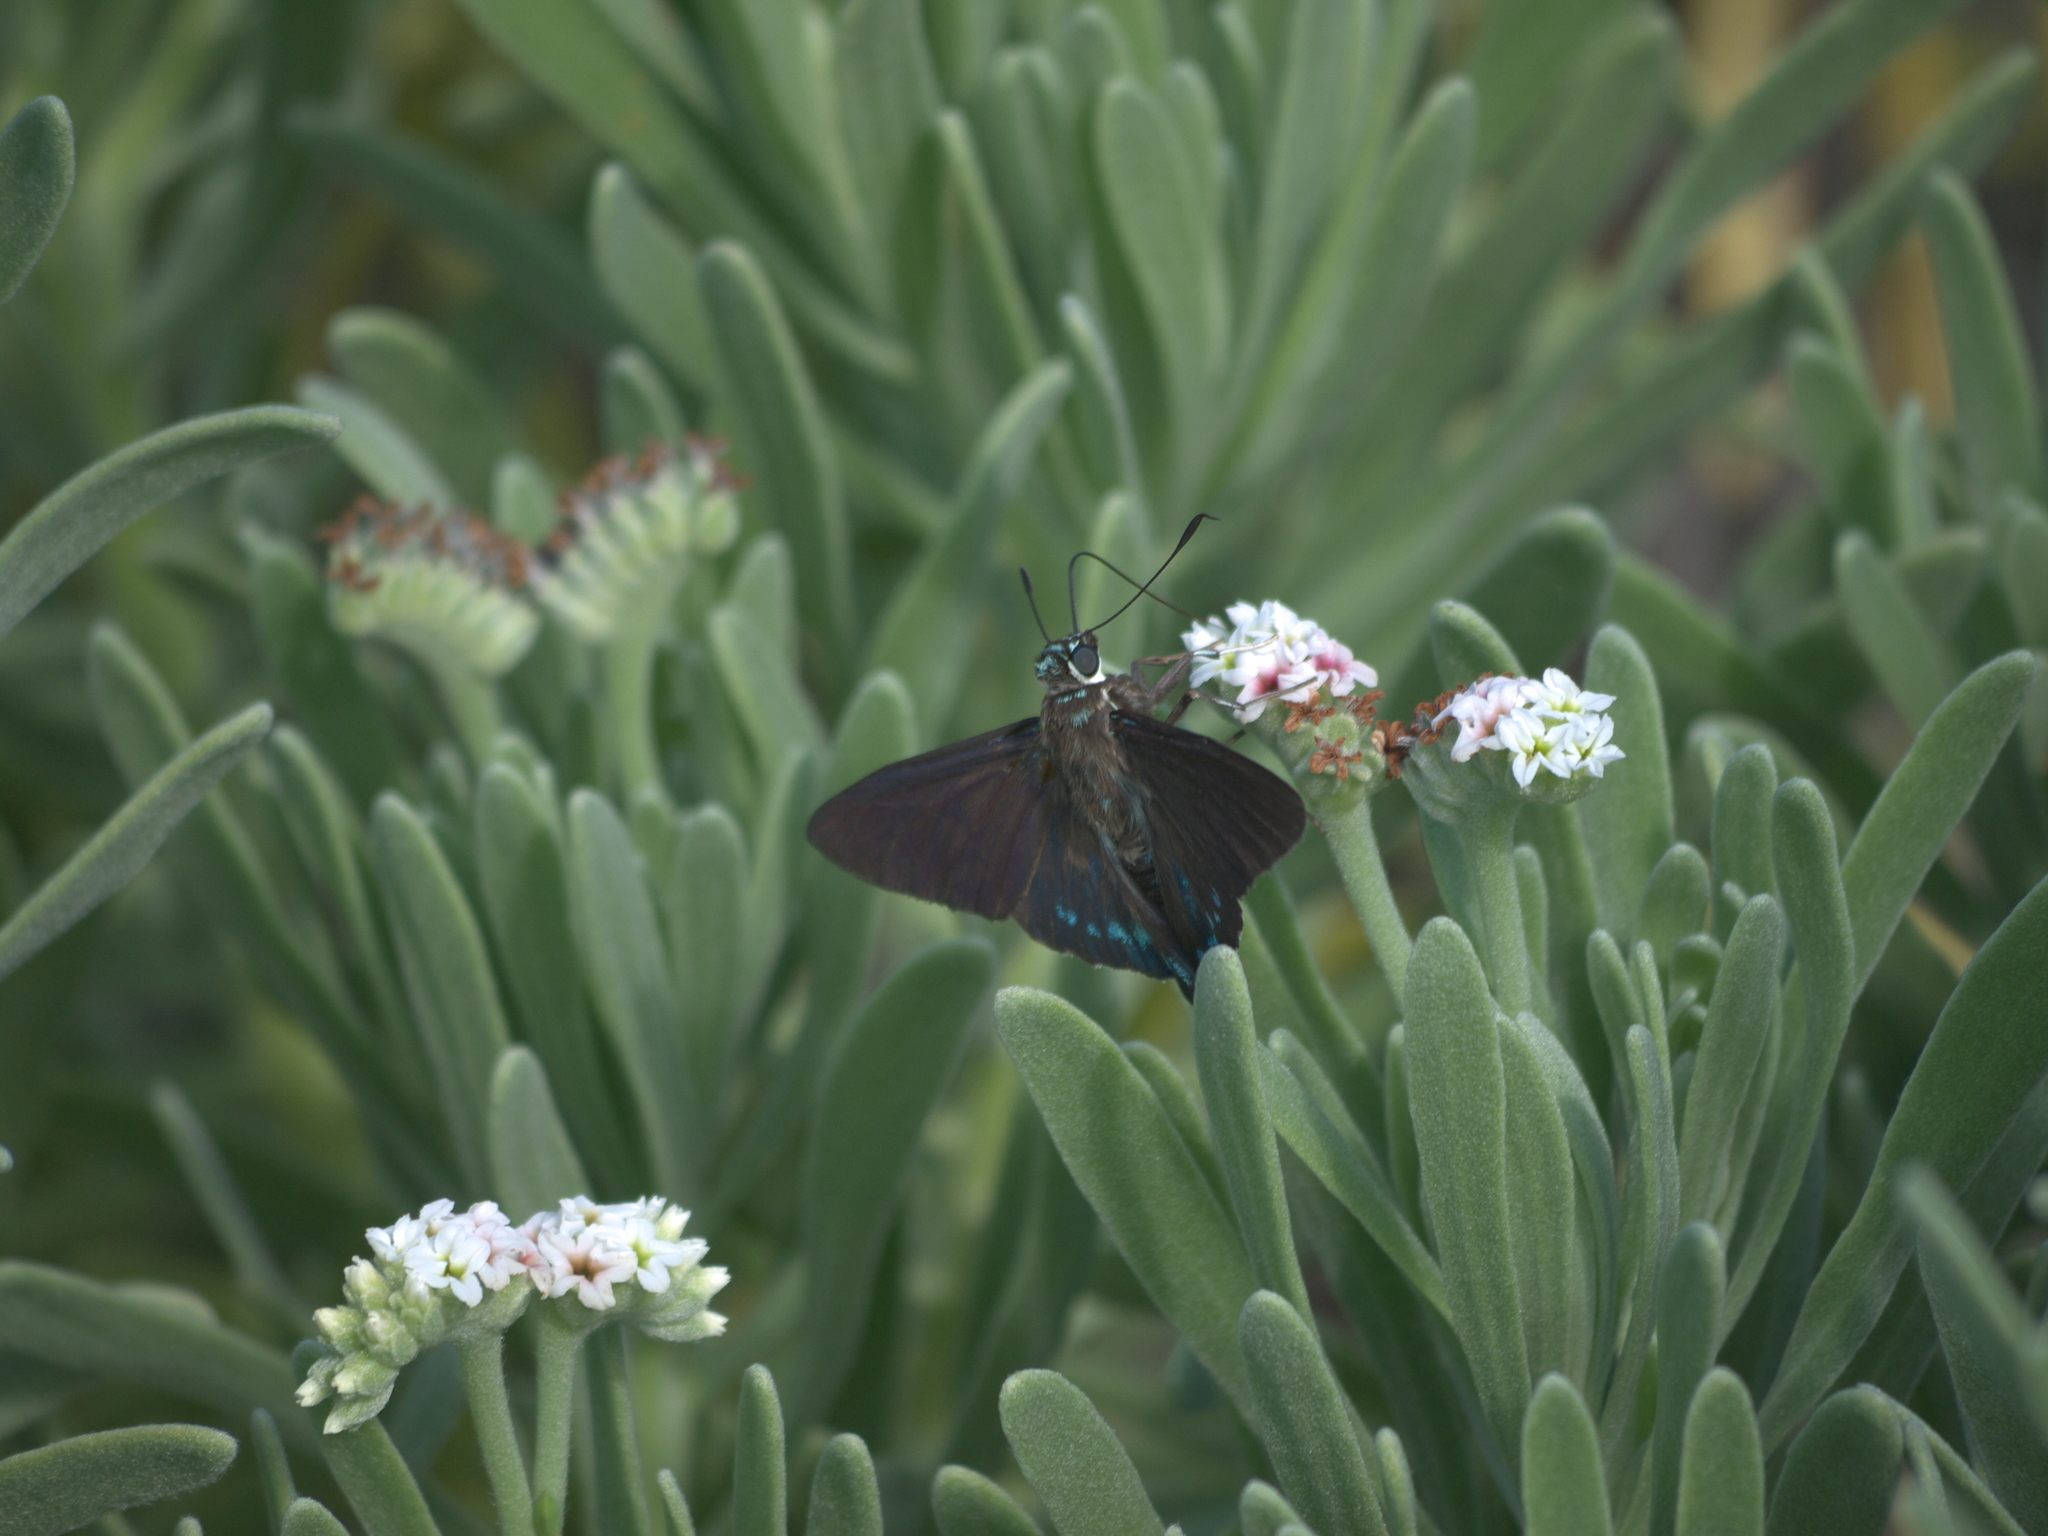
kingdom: Plantae
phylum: Tracheophyta
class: Magnoliopsida
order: Boraginales
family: Heliotropiaceae
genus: Tournefortia
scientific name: Tournefortia gnaphalodes
